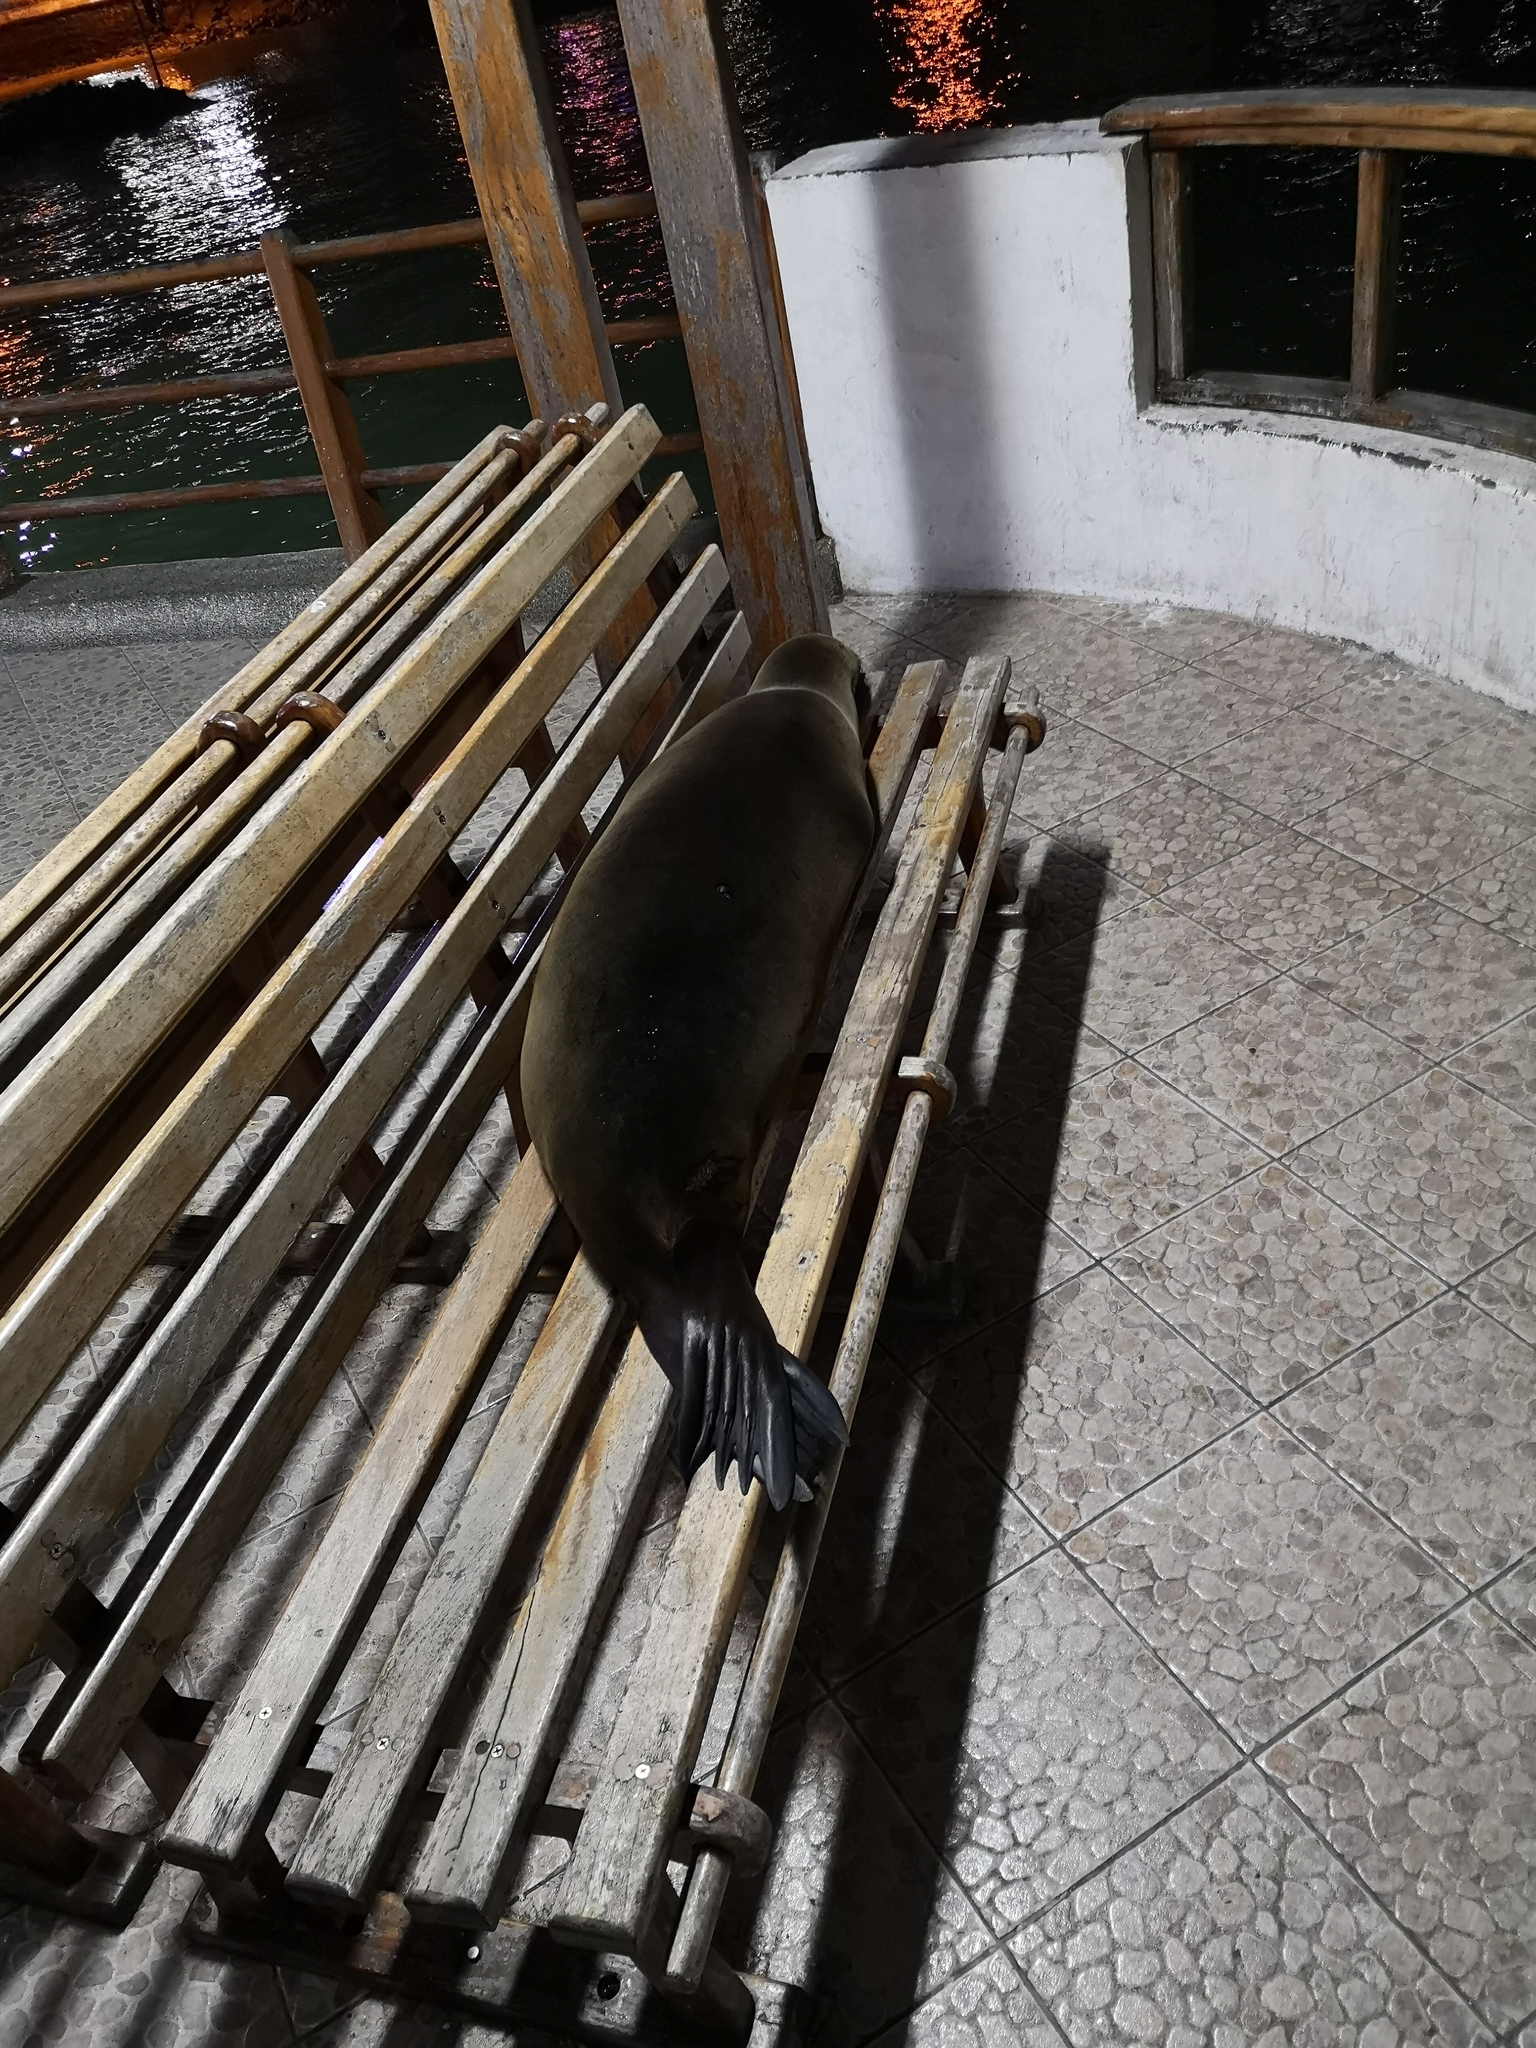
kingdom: Animalia
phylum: Chordata
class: Mammalia
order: Carnivora
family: Otariidae
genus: Zalophus
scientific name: Zalophus wollebaeki
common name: Galapagos sea lion
